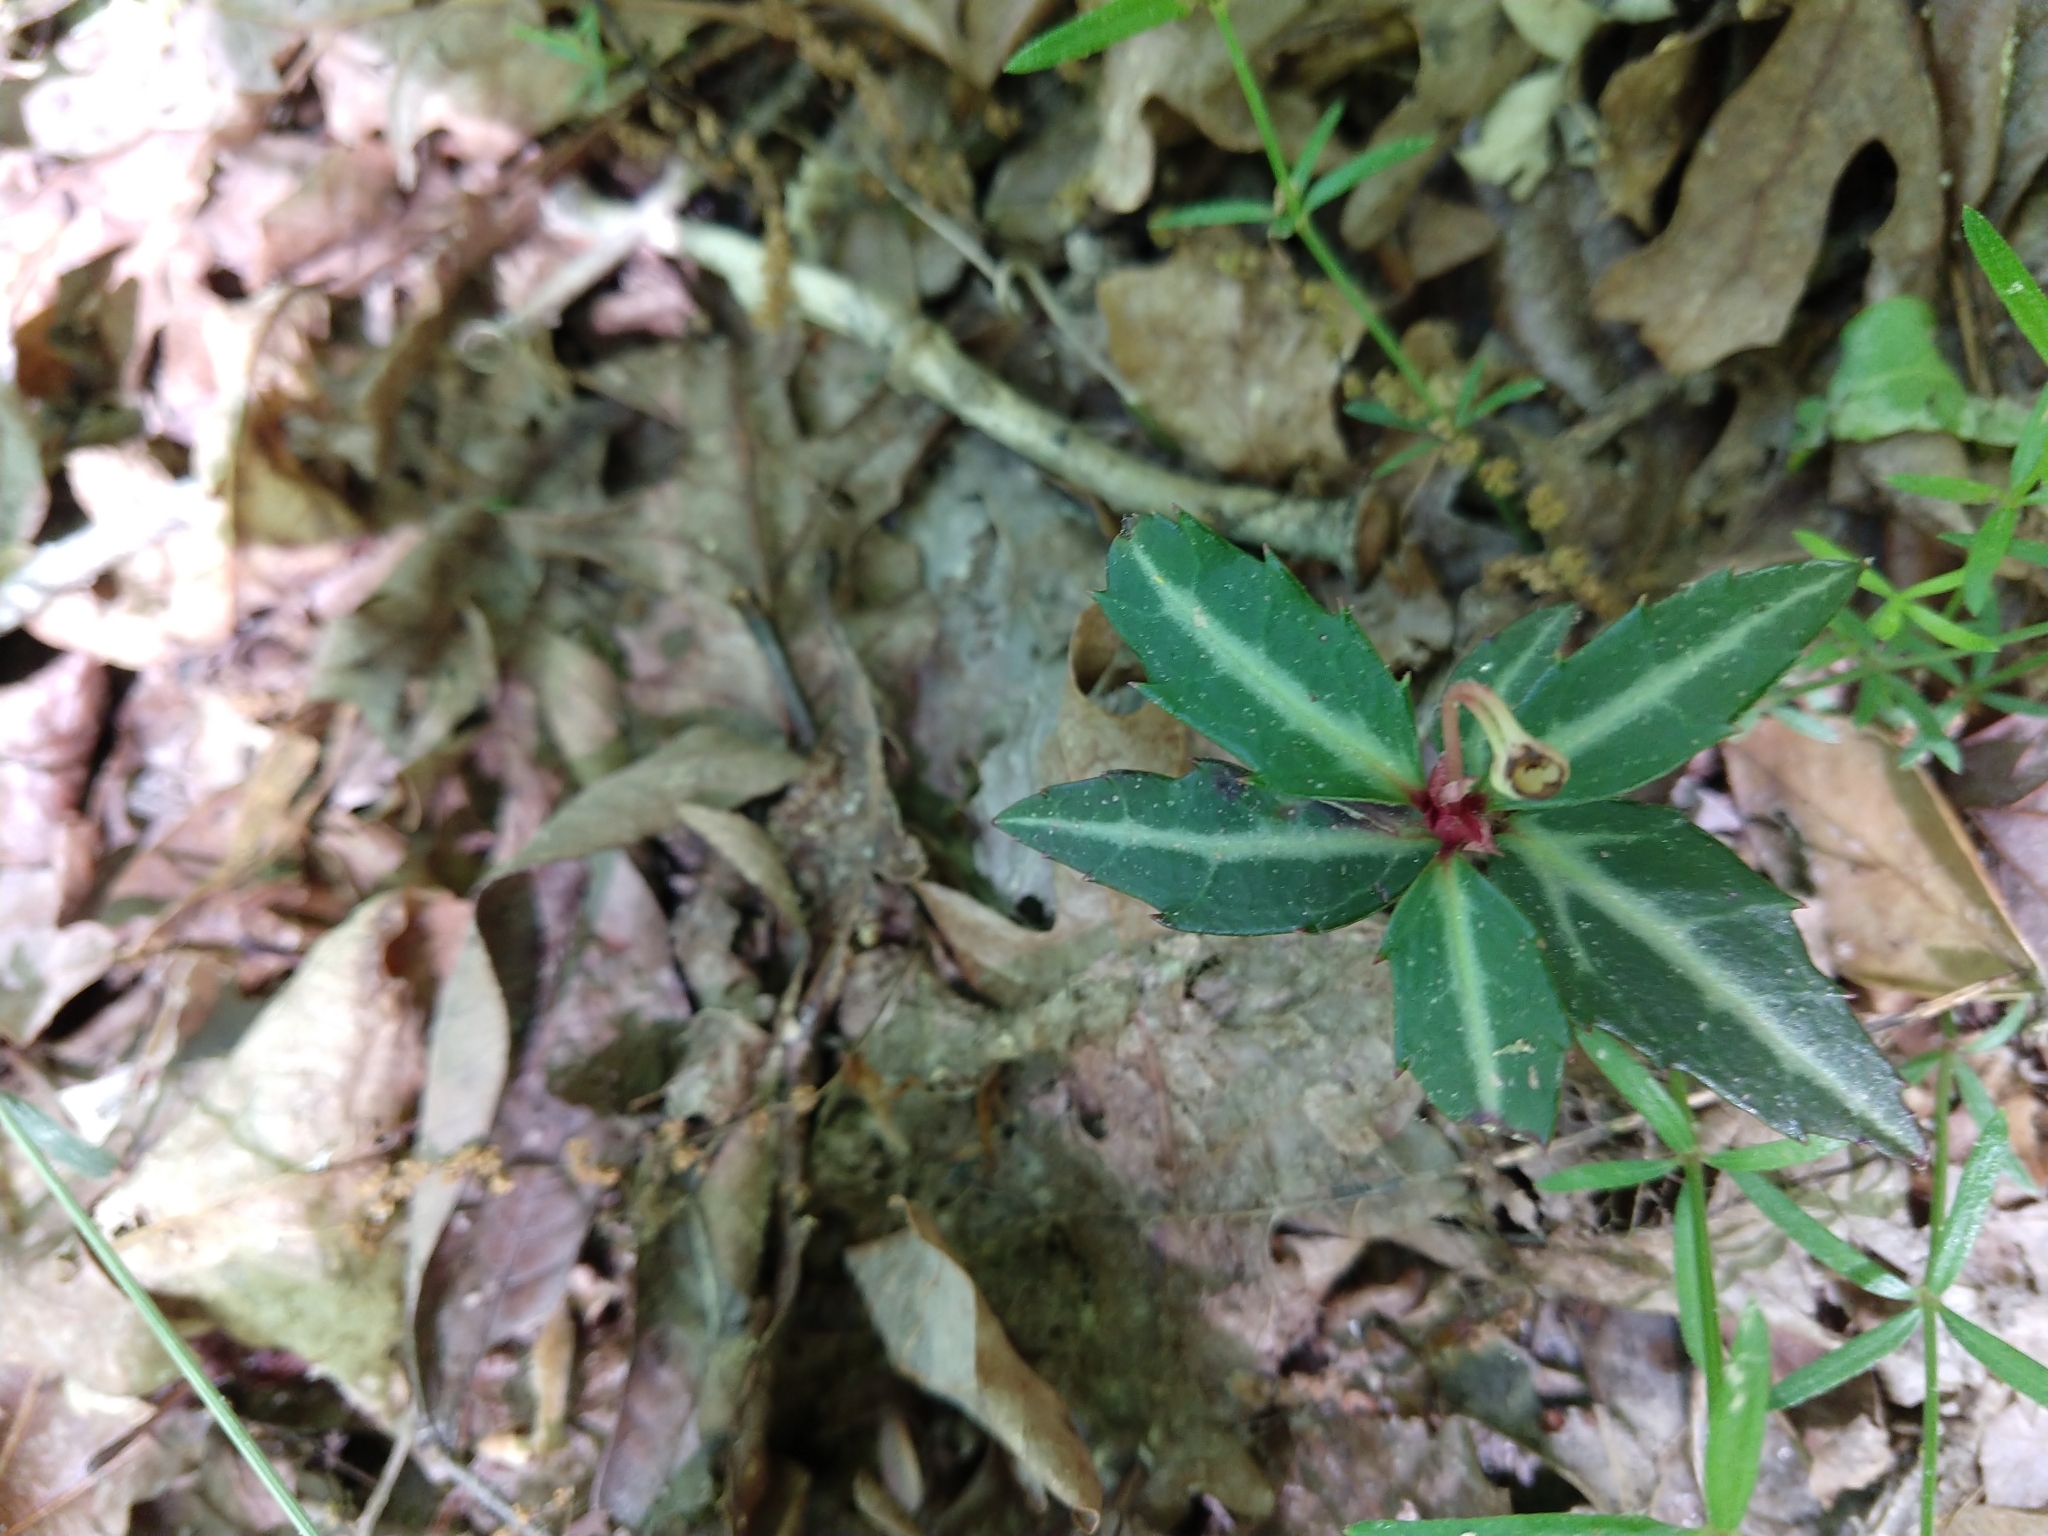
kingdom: Plantae
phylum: Tracheophyta
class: Magnoliopsida
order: Ericales
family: Ericaceae
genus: Chimaphila
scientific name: Chimaphila maculata
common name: Spotted pipsissewa
